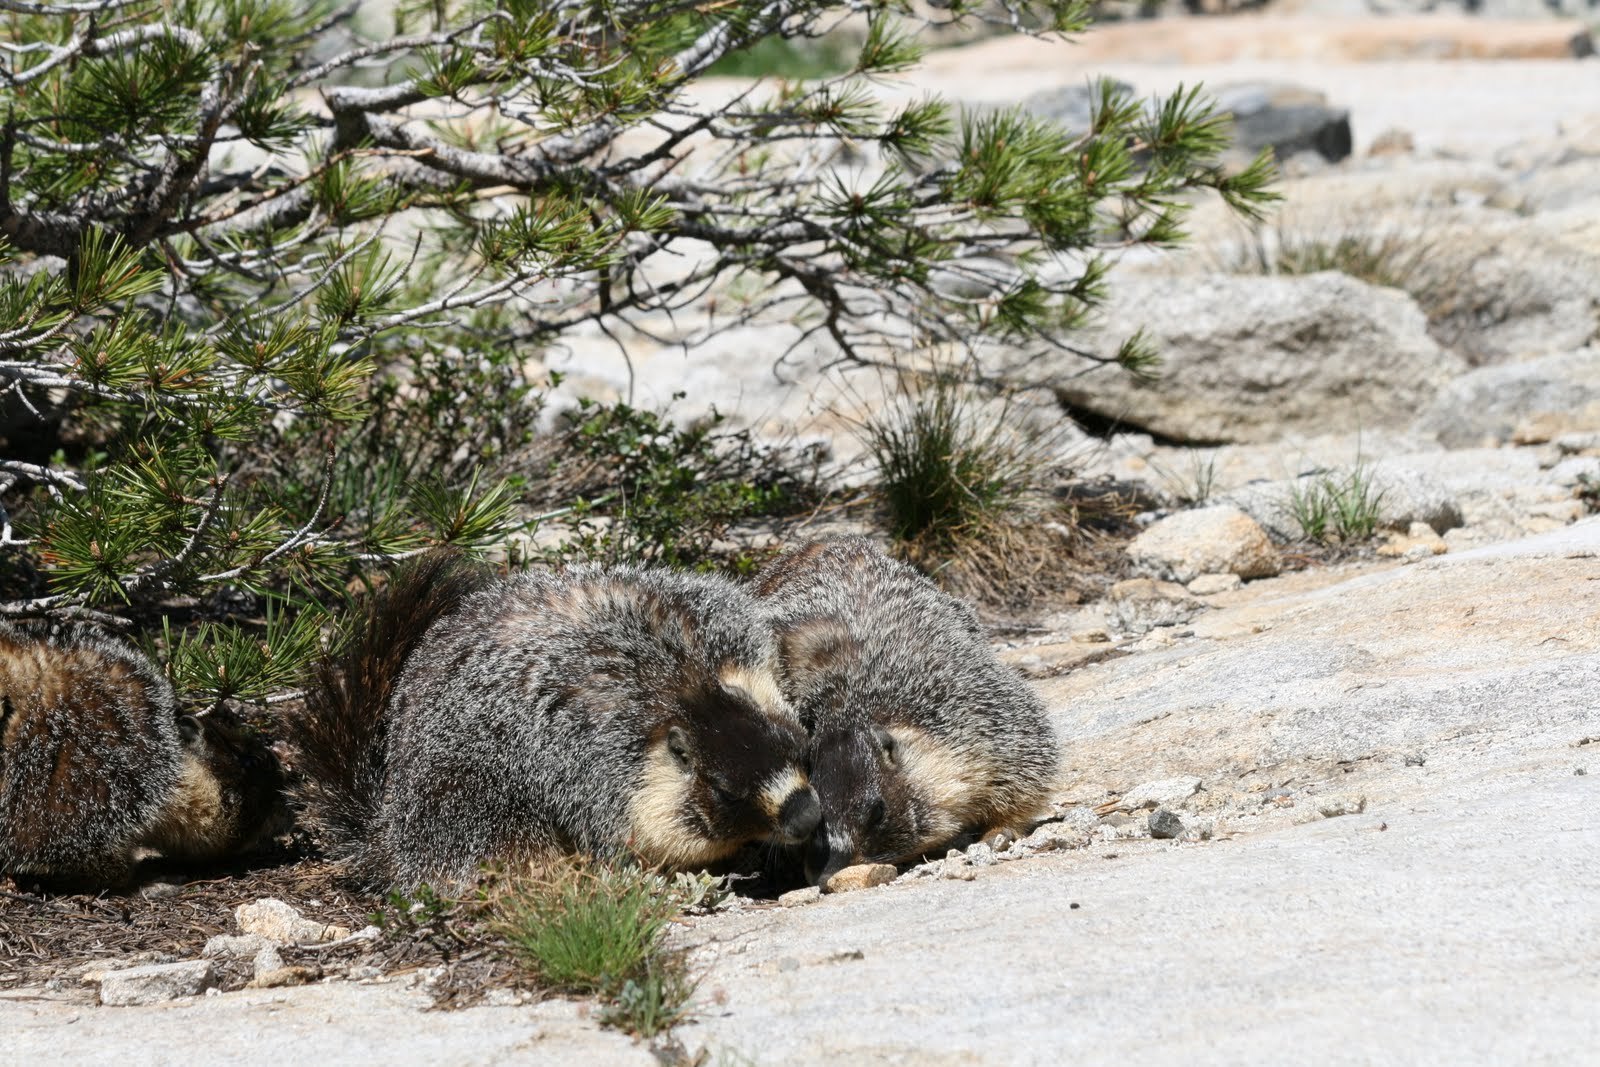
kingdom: Animalia
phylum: Chordata
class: Mammalia
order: Rodentia
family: Sciuridae
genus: Marmota
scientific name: Marmota flaviventris
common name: Yellow-bellied marmot
